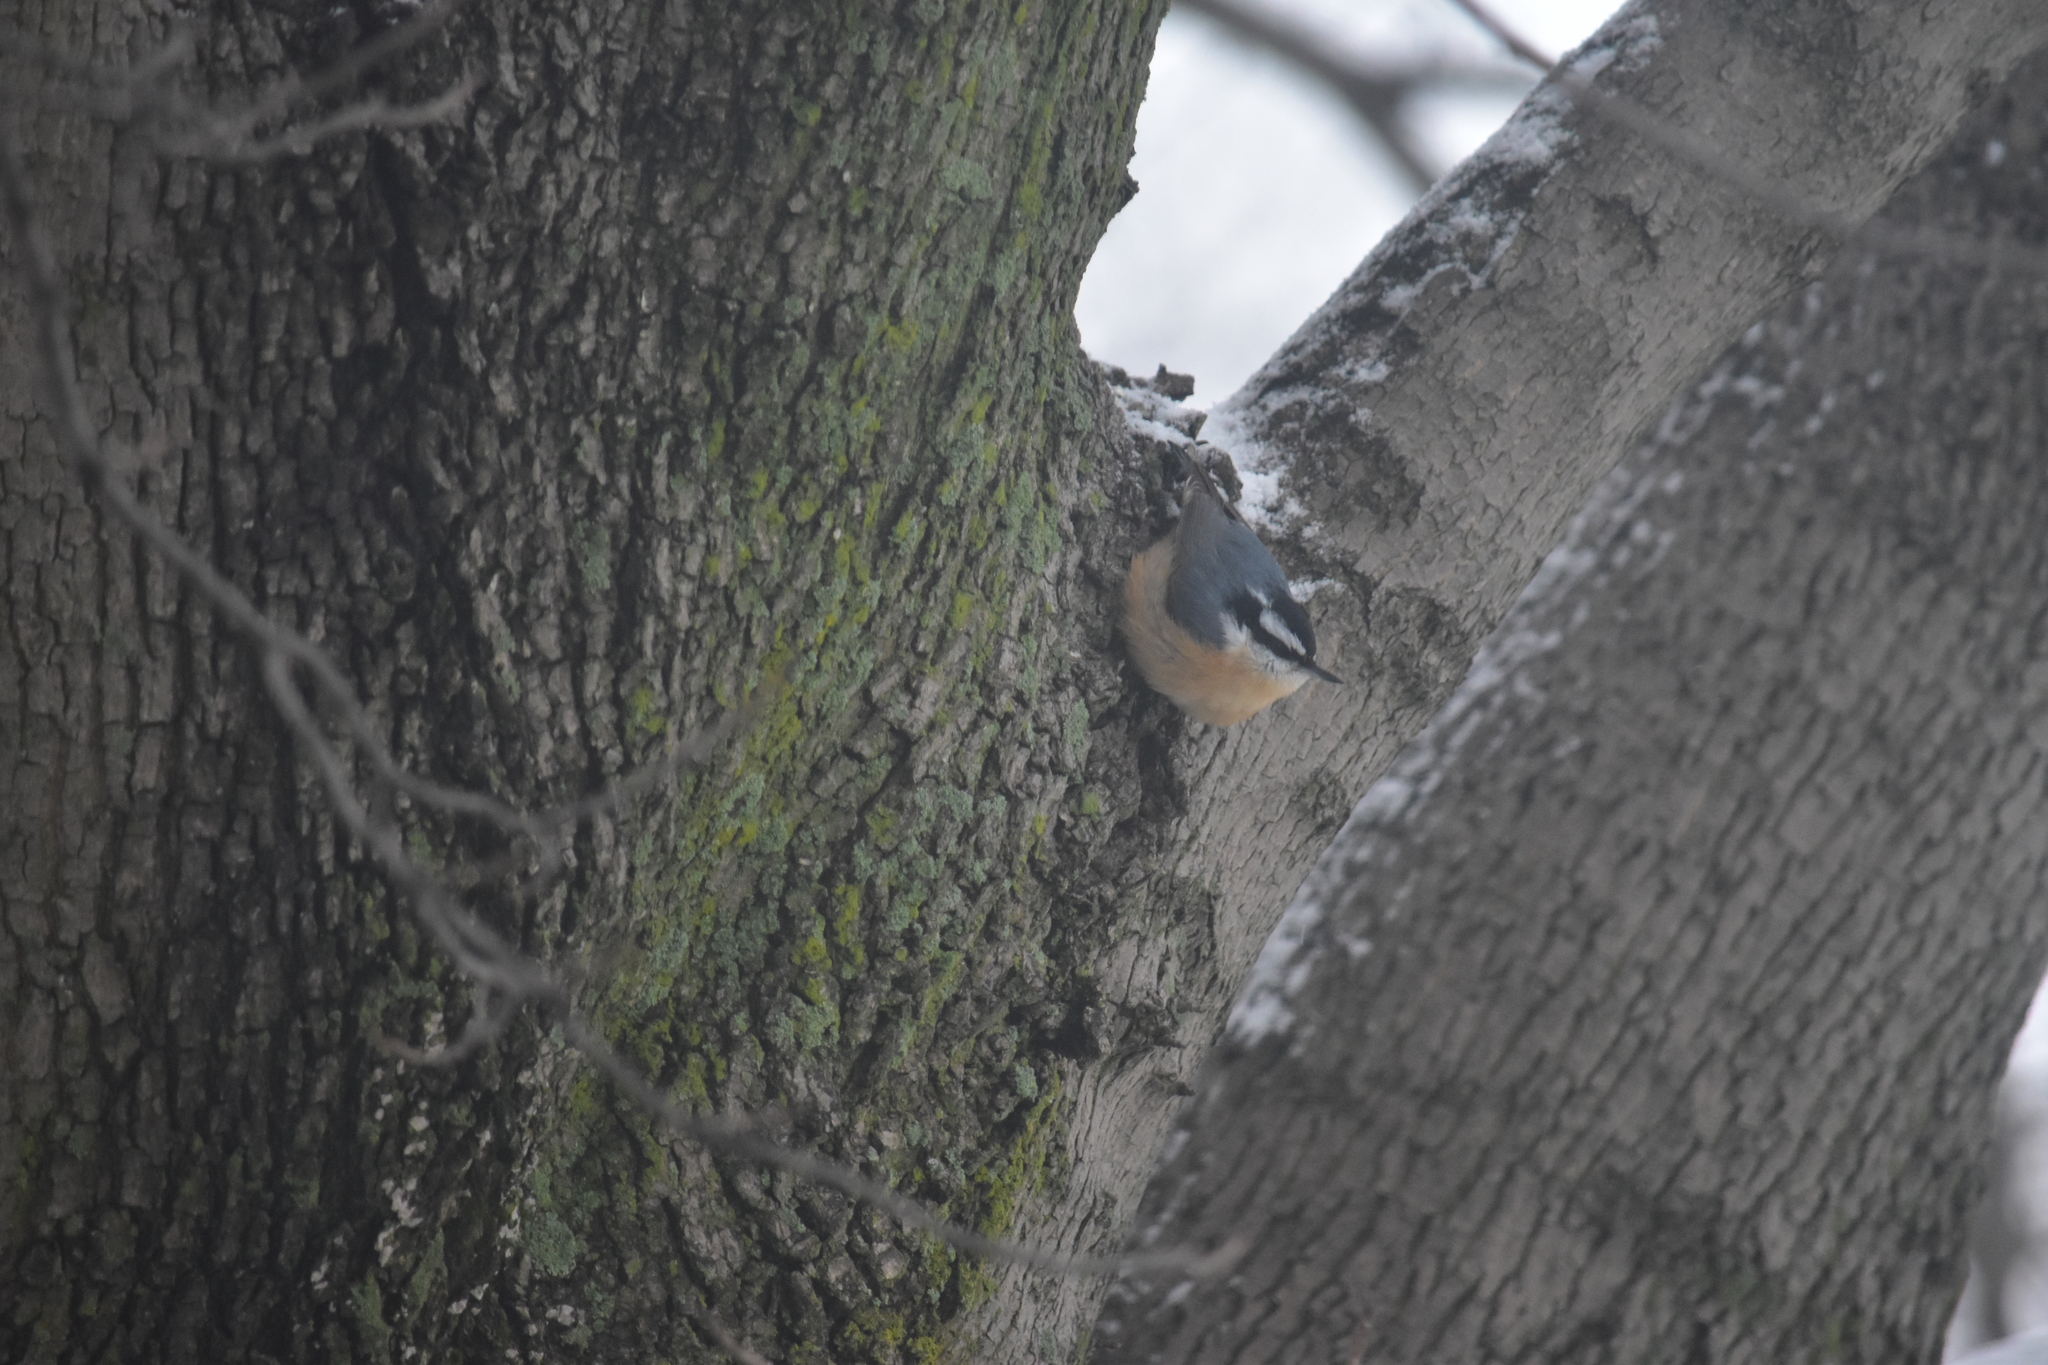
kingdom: Animalia
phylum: Chordata
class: Aves
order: Passeriformes
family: Sittidae
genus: Sitta
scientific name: Sitta canadensis
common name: Red-breasted nuthatch
